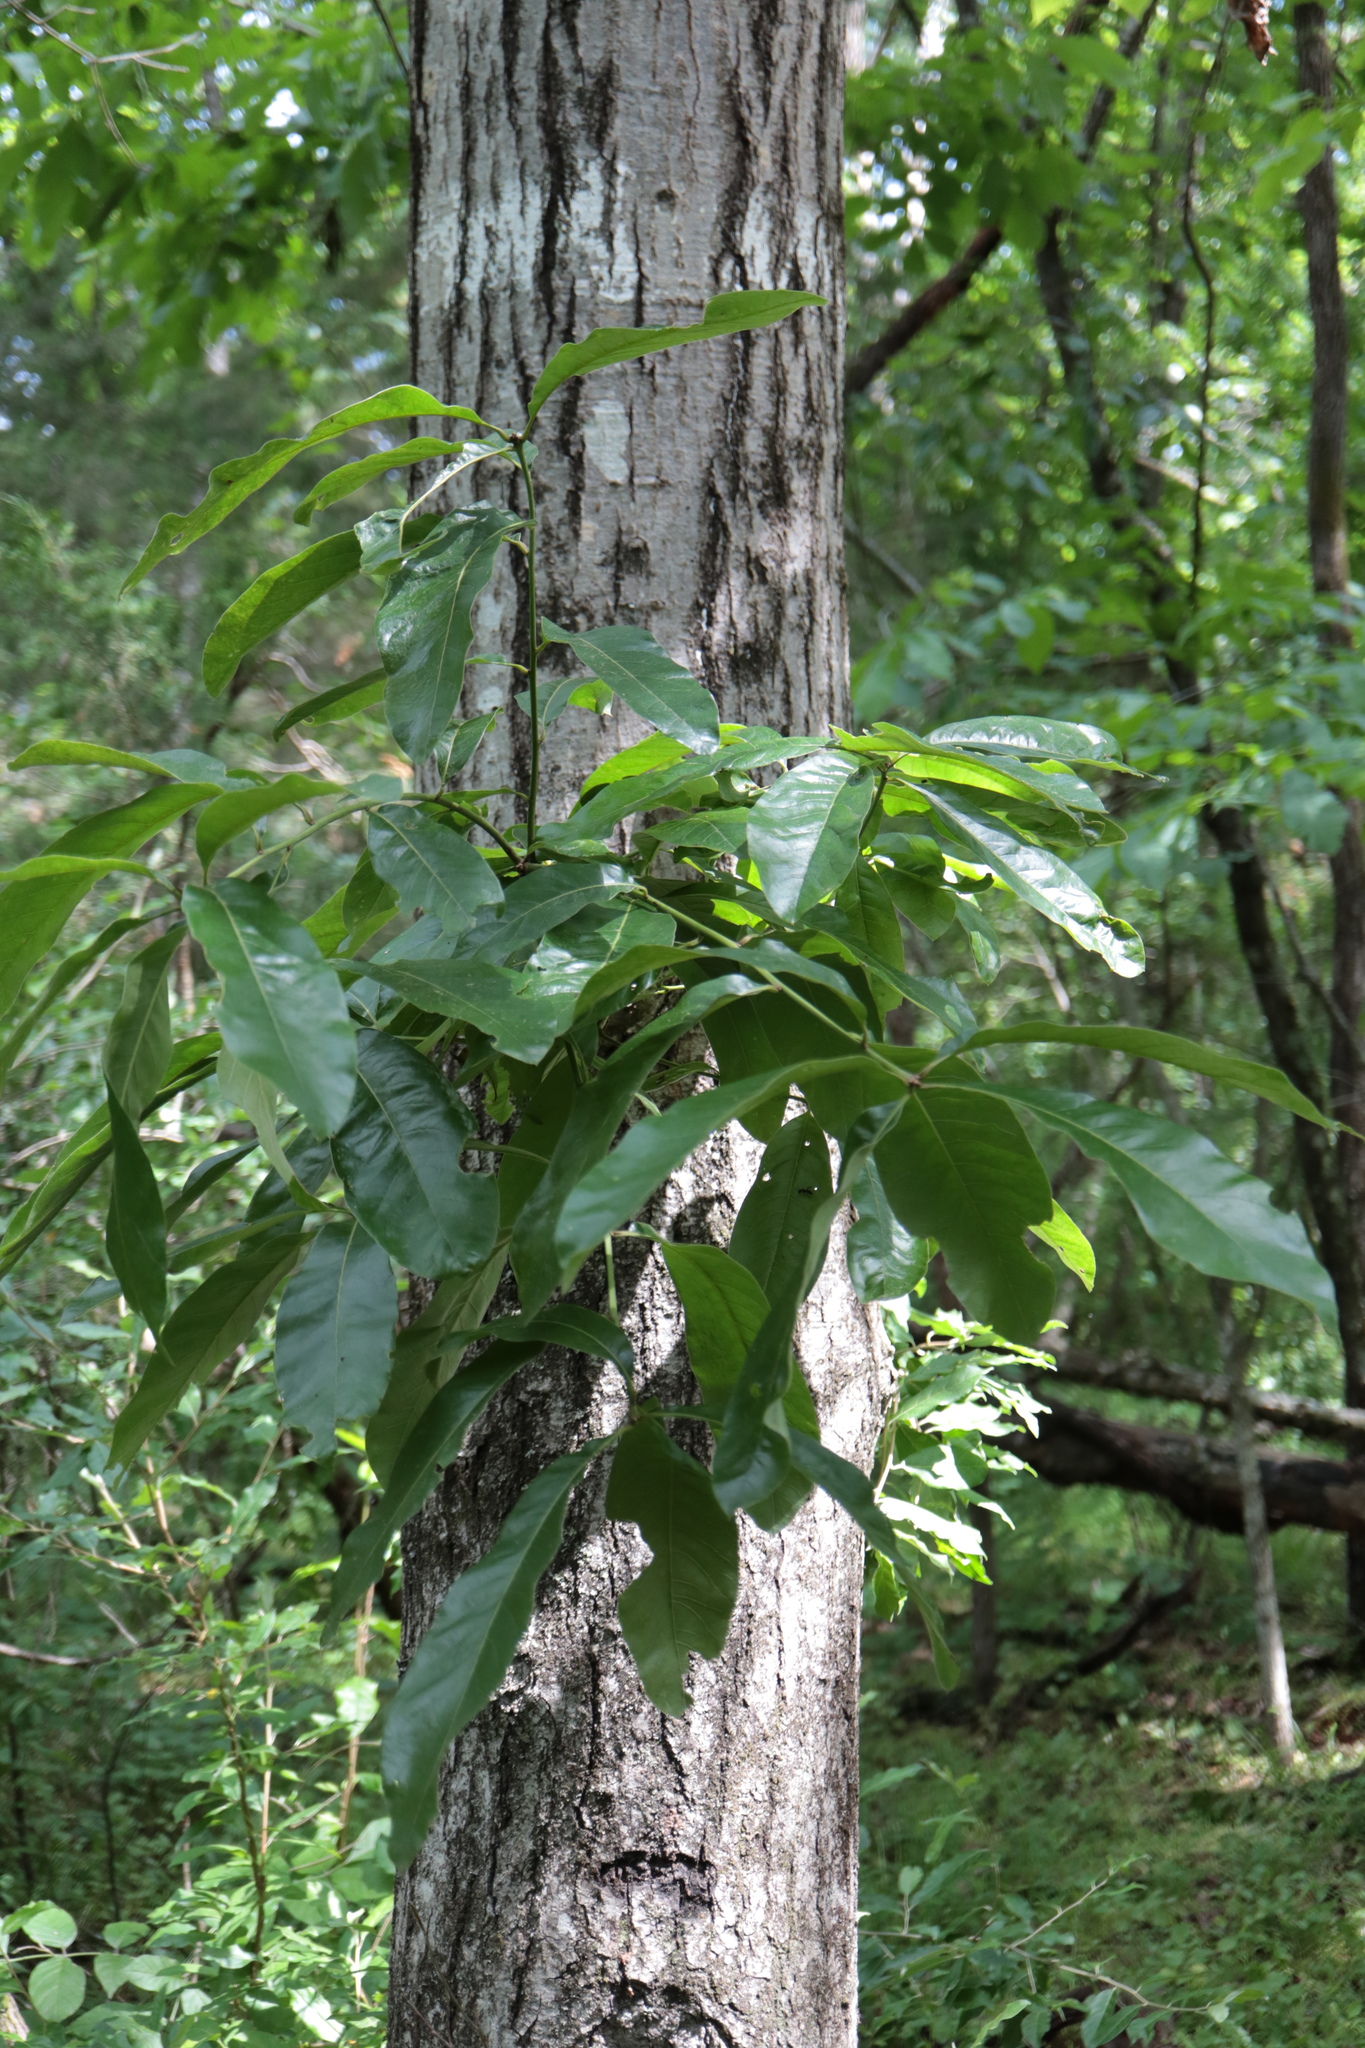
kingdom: Plantae
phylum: Tracheophyta
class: Magnoliopsida
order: Fagales
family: Fagaceae
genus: Quercus
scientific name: Quercus imbricaria
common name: Shingle oak
